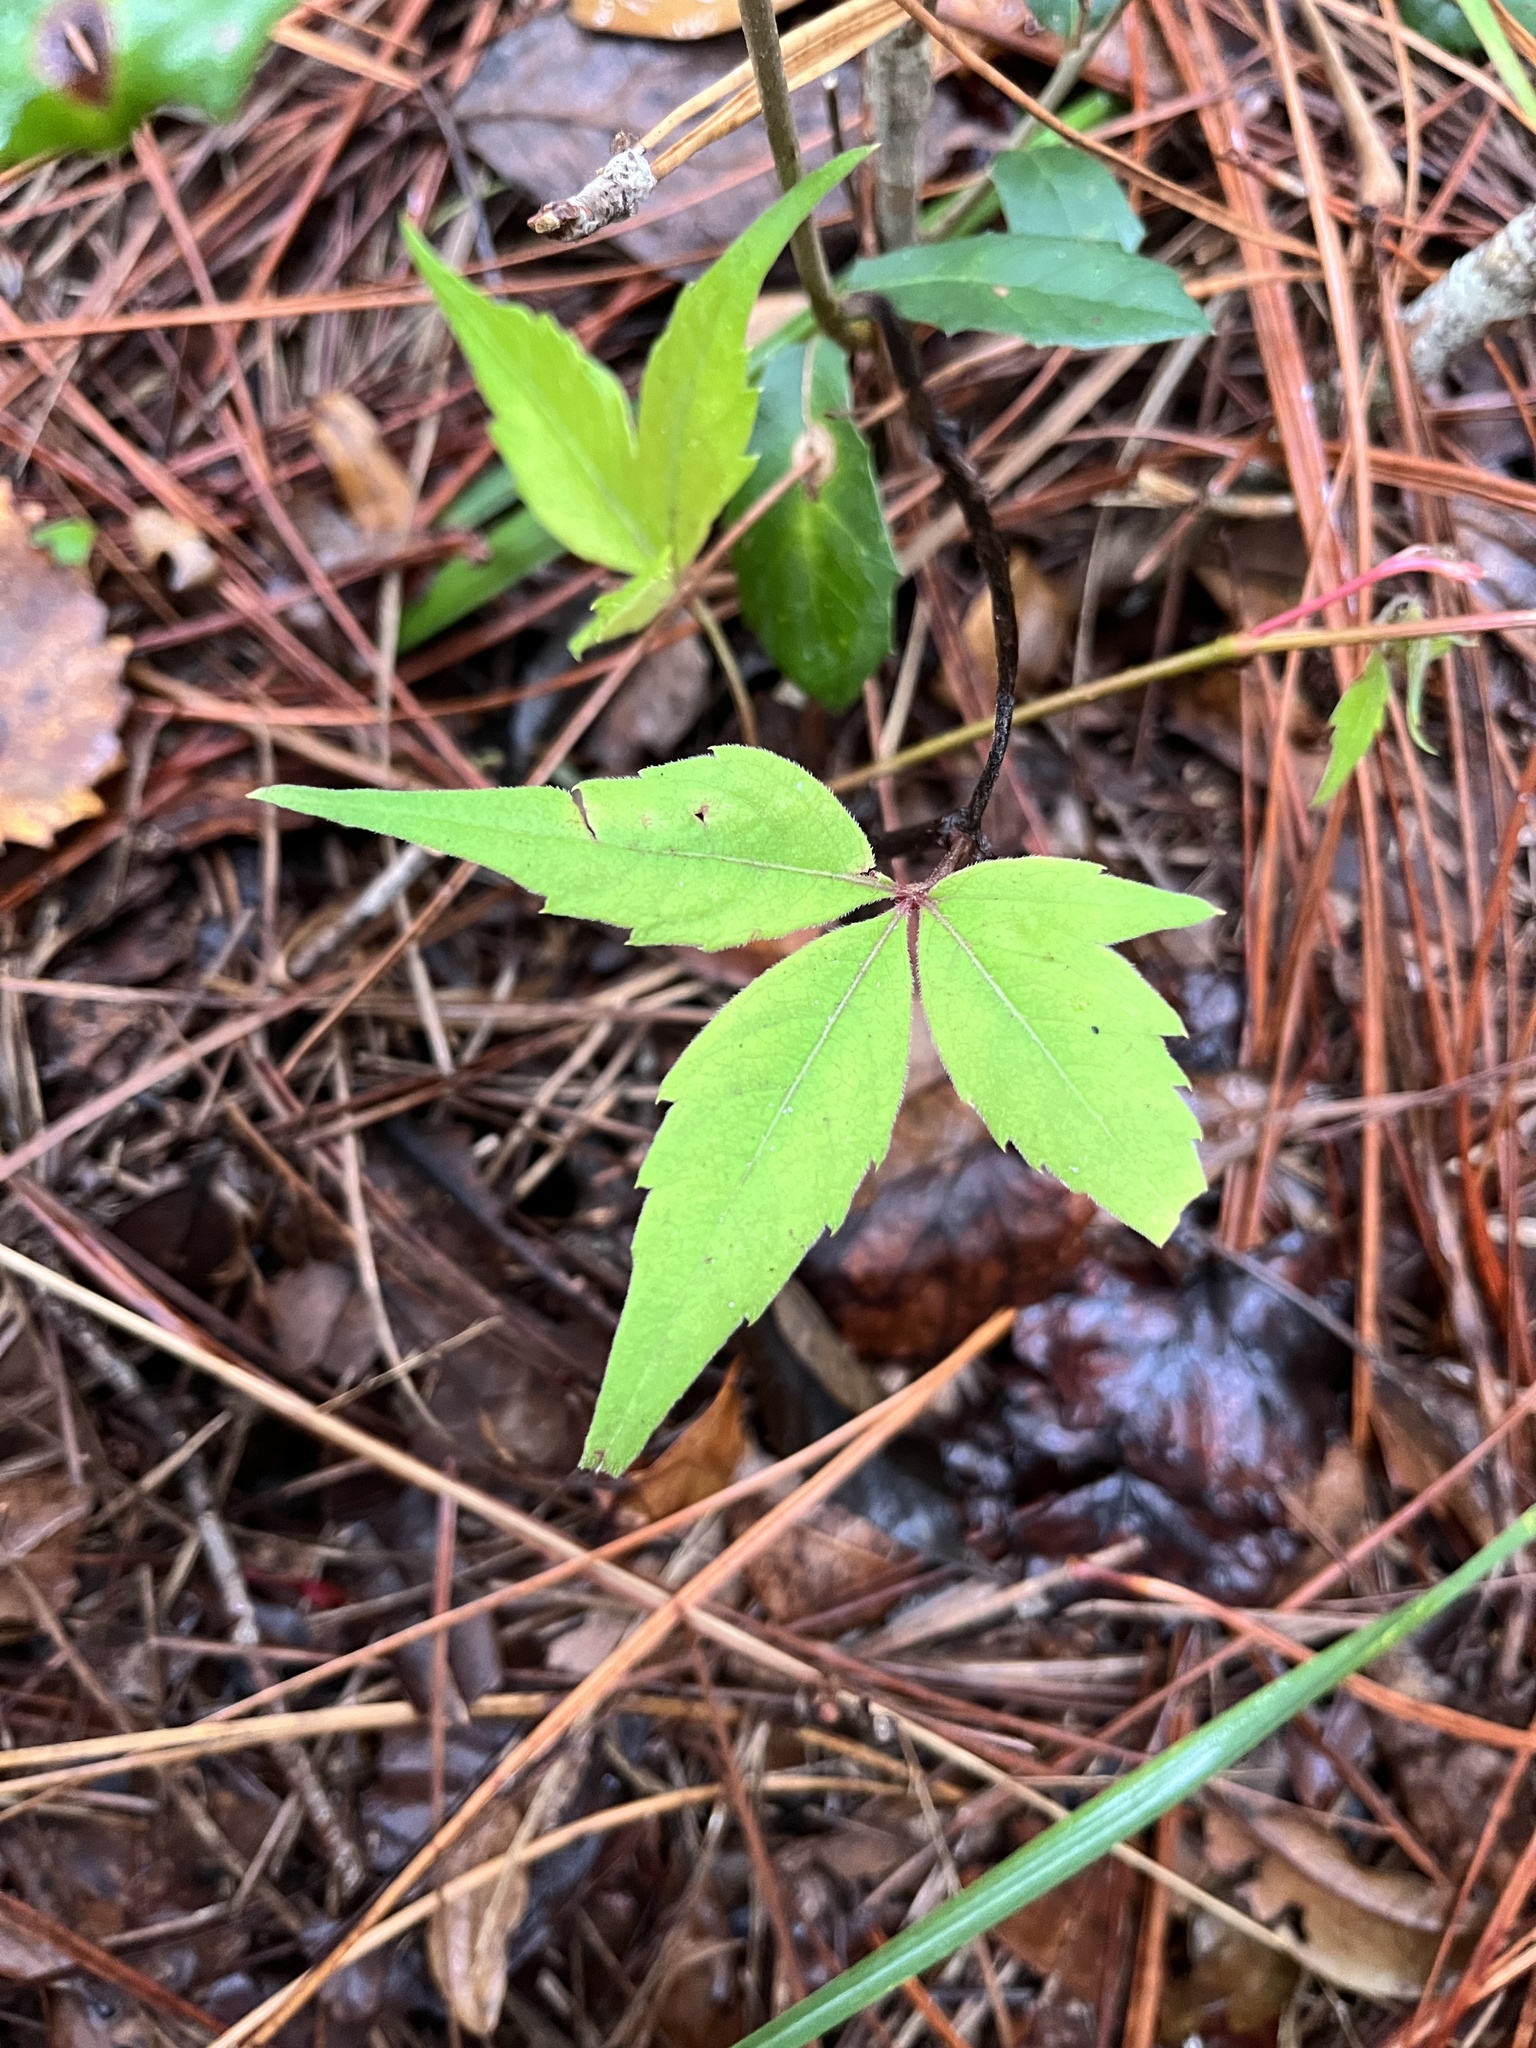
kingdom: Plantae
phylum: Tracheophyta
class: Magnoliopsida
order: Vitales
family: Vitaceae
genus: Parthenocissus
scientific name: Parthenocissus quinquefolia
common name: Virginia-creeper
